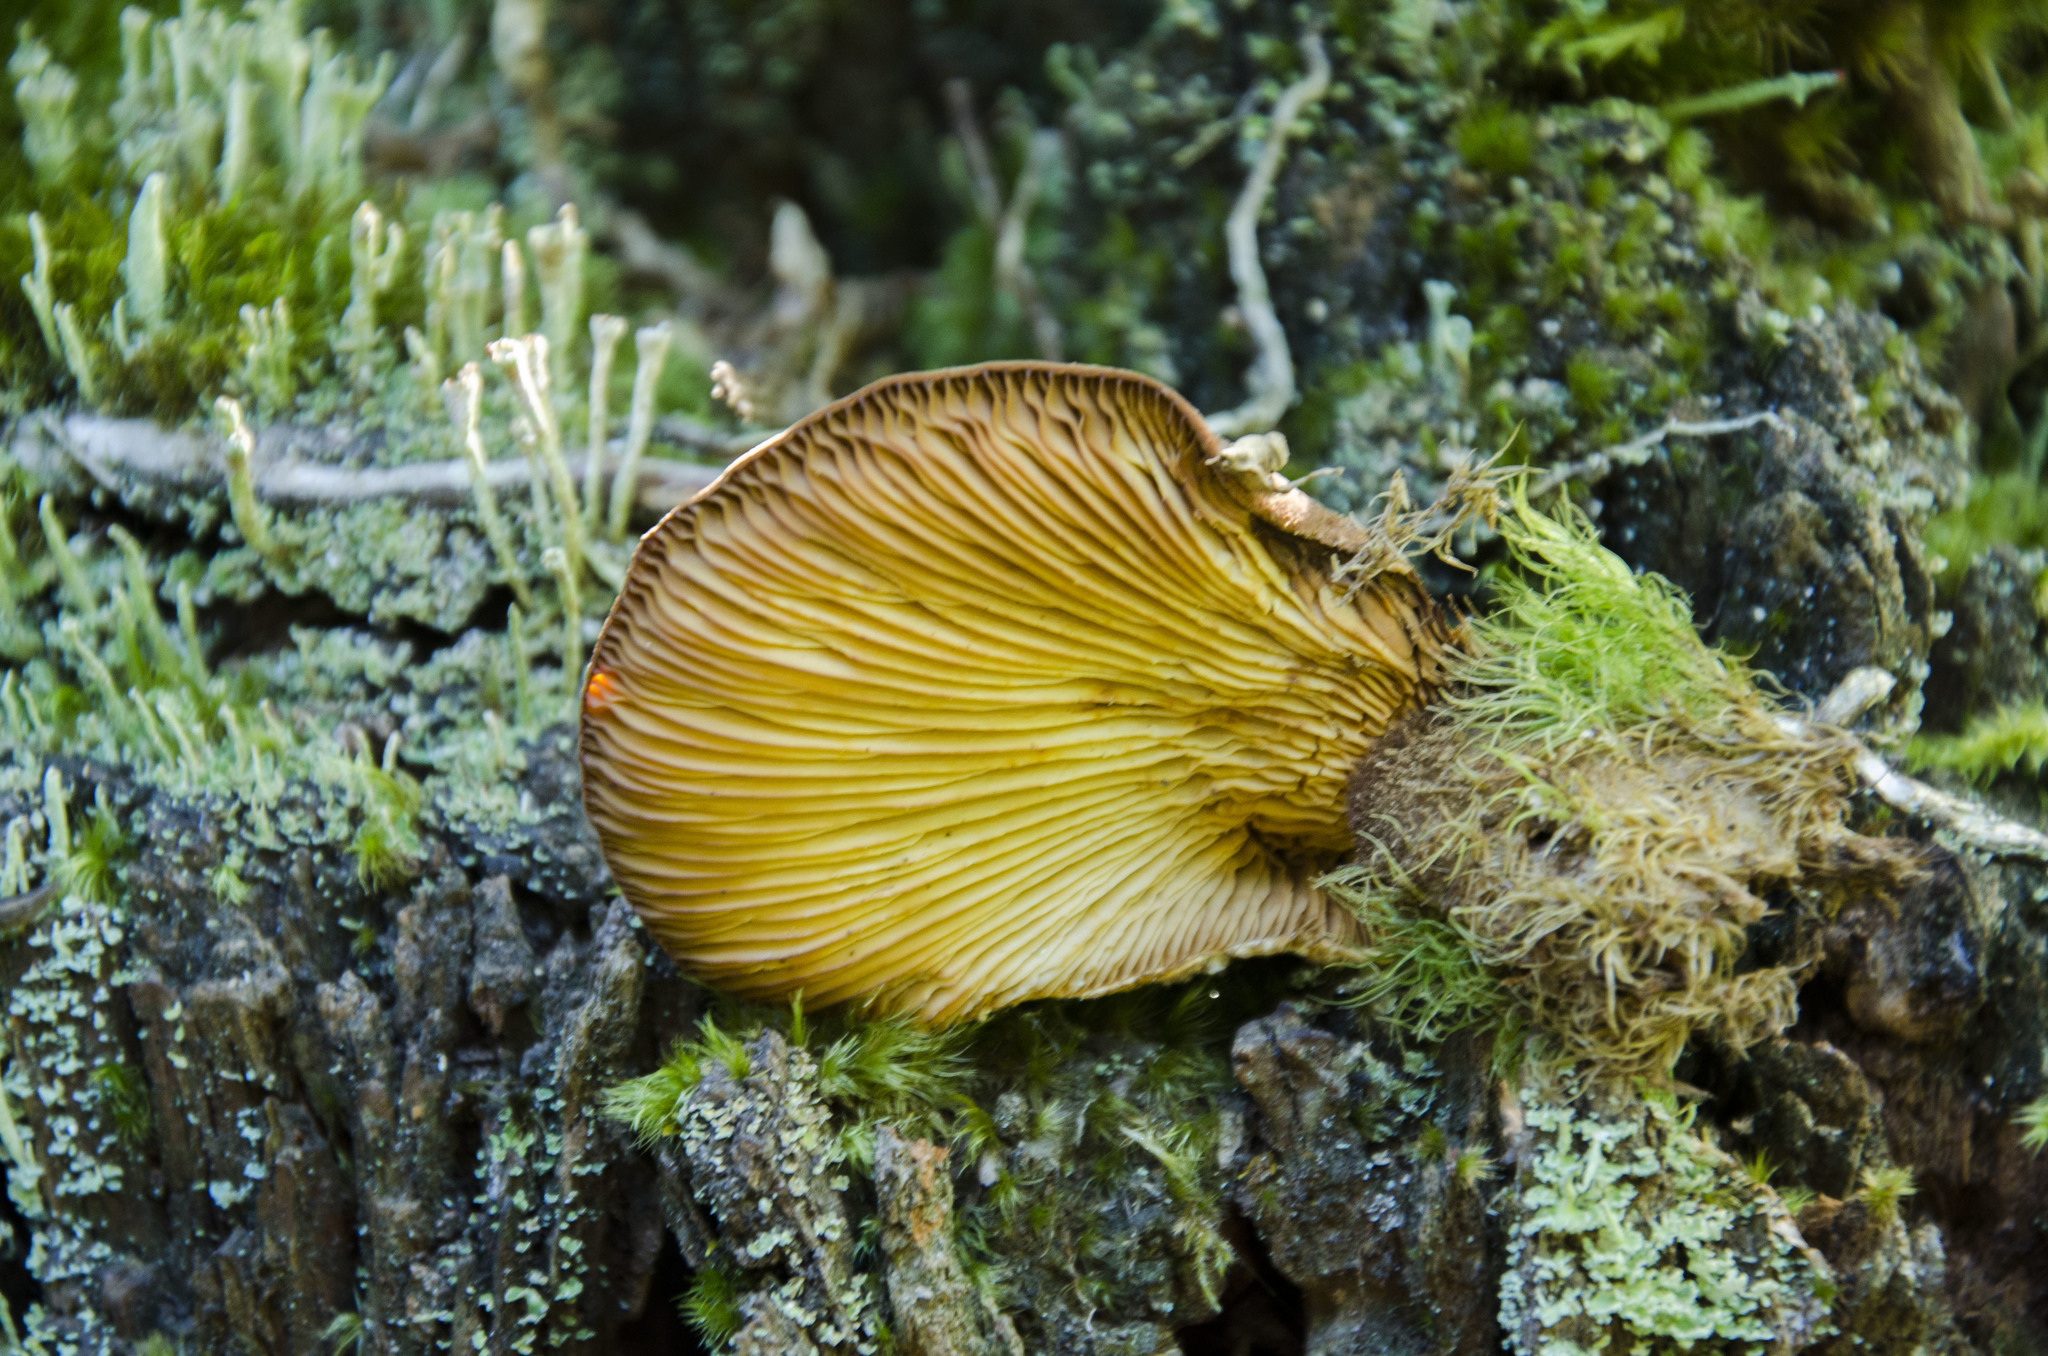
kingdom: Fungi
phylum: Basidiomycota
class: Agaricomycetes
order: Boletales
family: Tapinellaceae
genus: Tapinella
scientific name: Tapinella atrotomentosa
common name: Velvet rollrim
